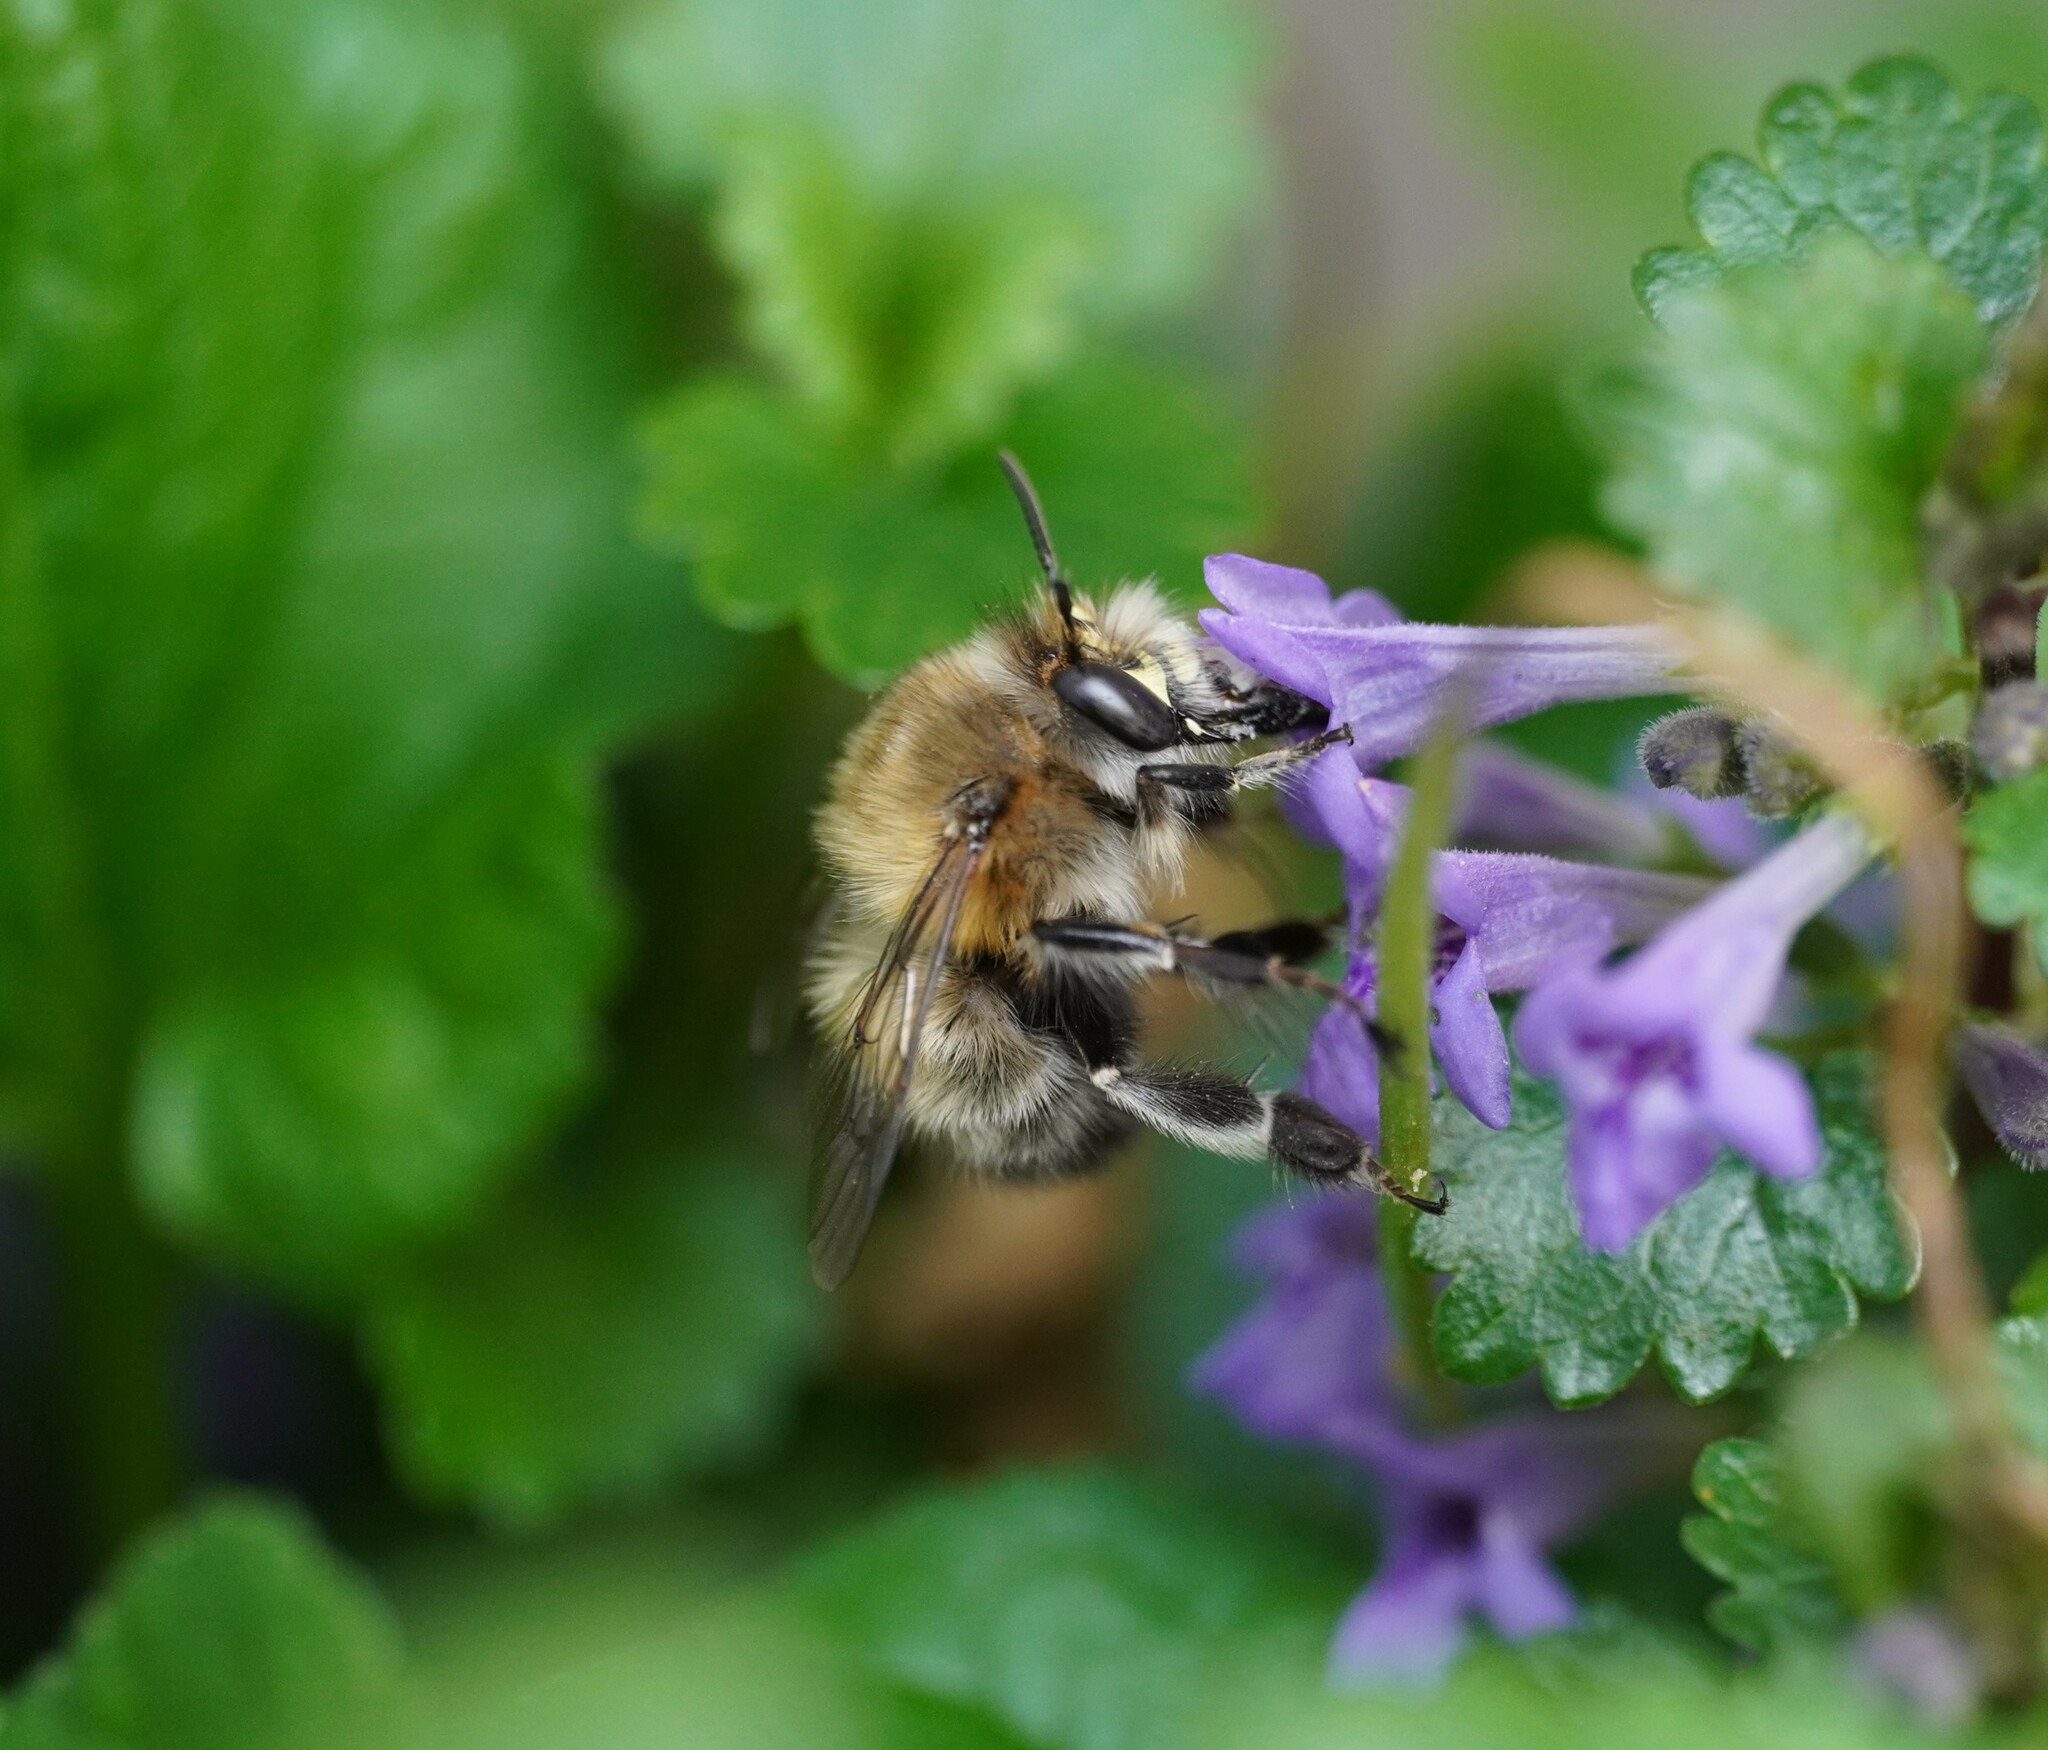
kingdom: Animalia
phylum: Arthropoda
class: Insecta
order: Hymenoptera
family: Apidae
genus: Anthophora
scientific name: Anthophora plumipes
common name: Hairy-footed flower bee
